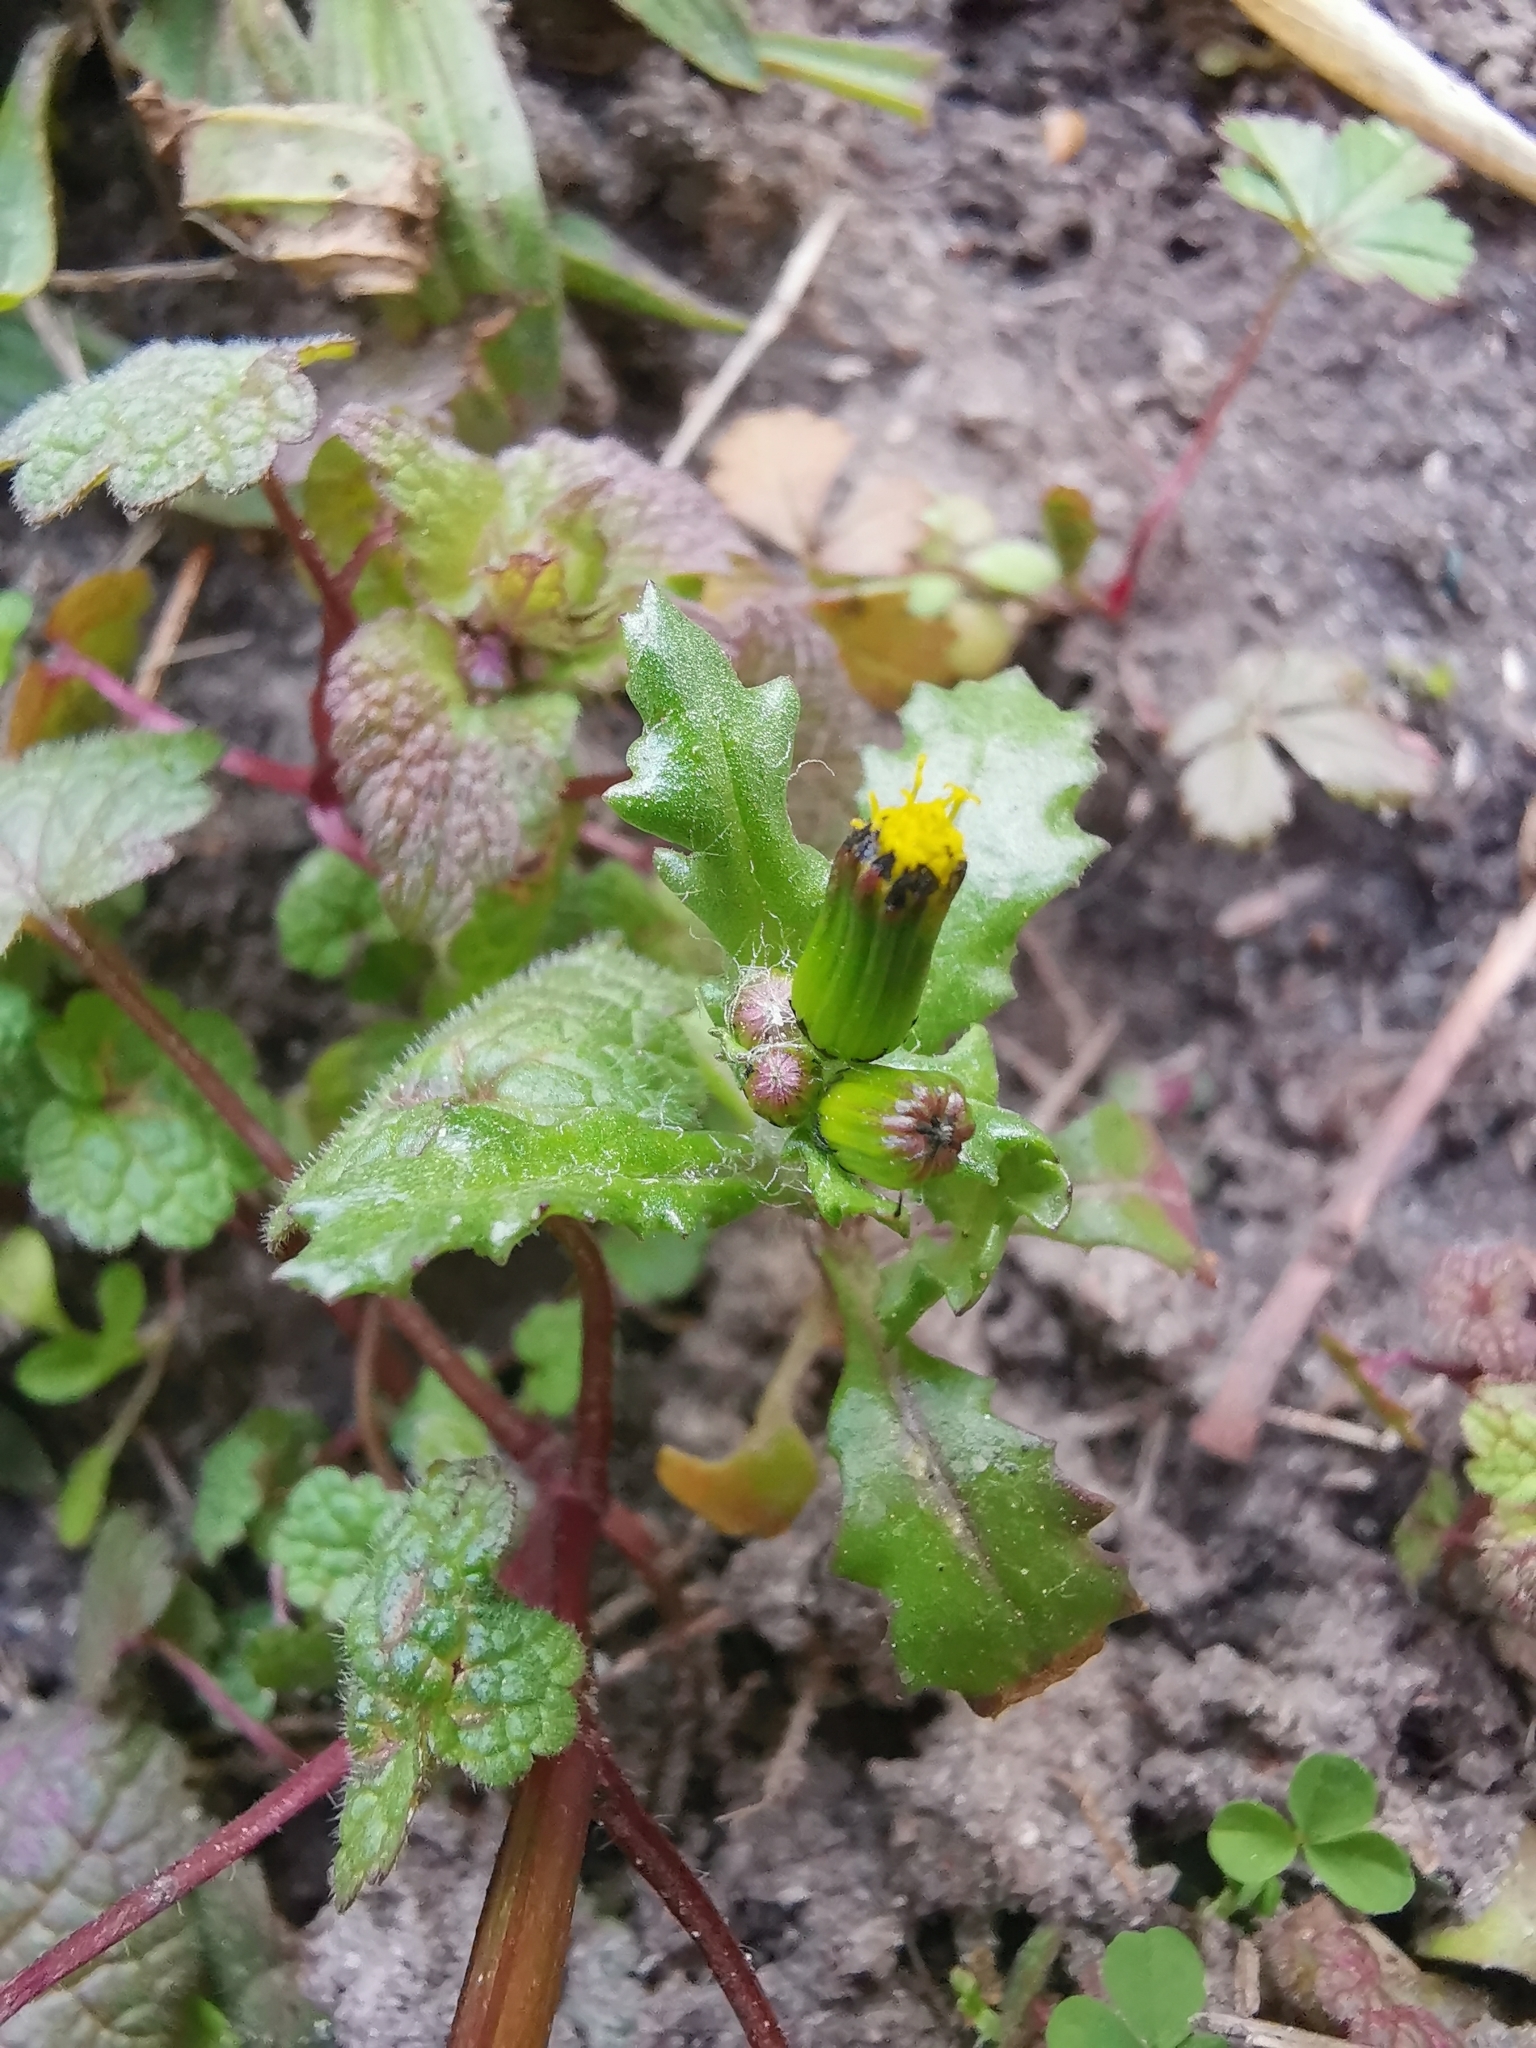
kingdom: Plantae
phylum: Tracheophyta
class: Magnoliopsida
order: Asterales
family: Asteraceae
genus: Senecio
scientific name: Senecio vulgaris
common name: Old-man-in-the-spring
